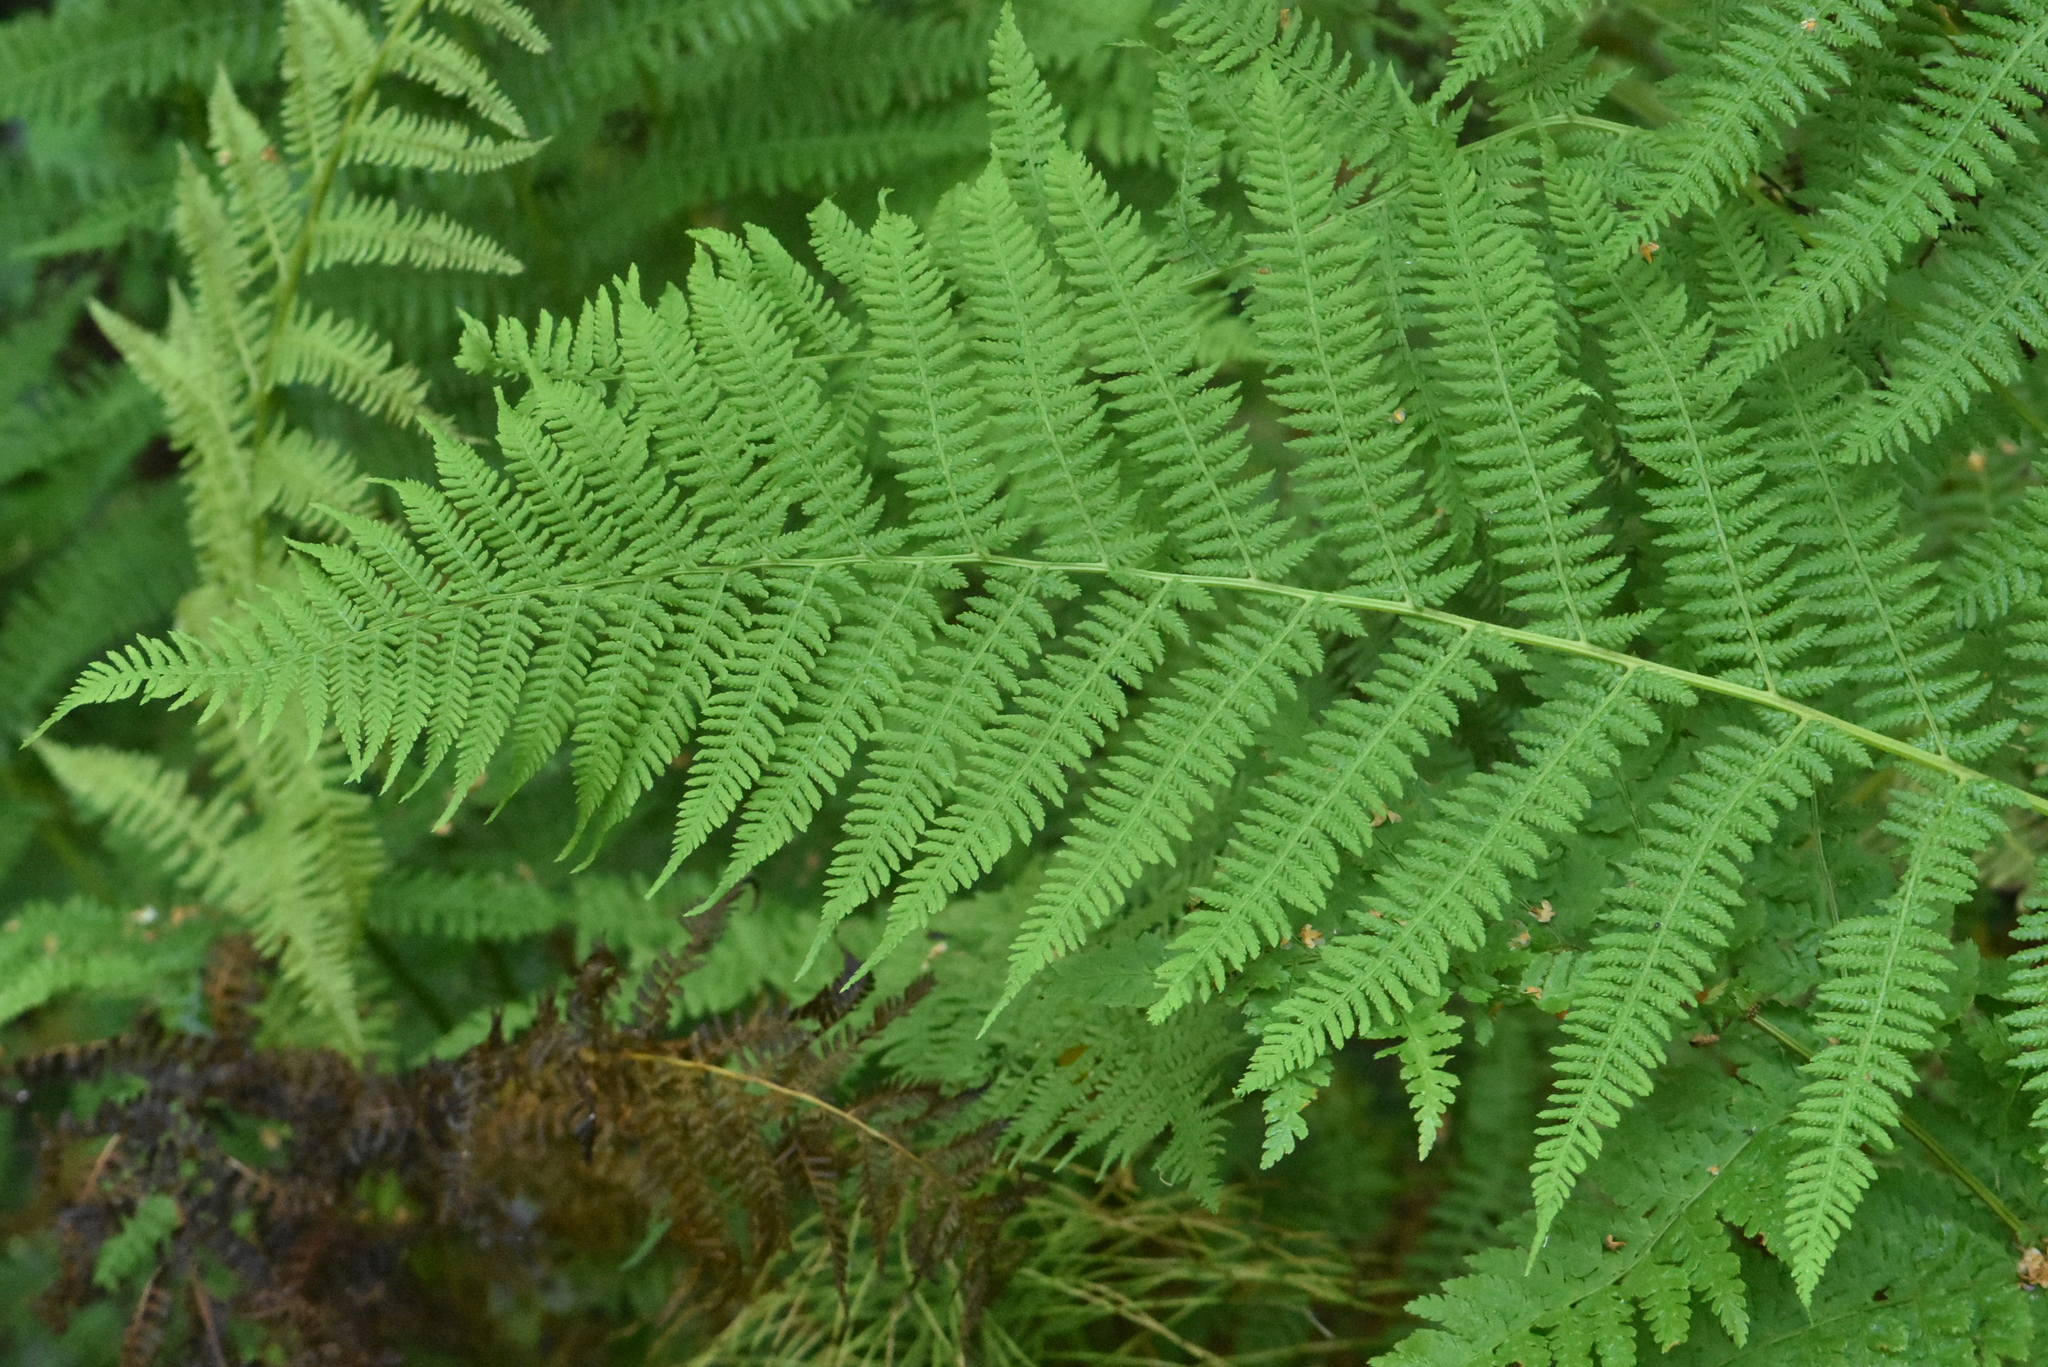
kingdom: Plantae
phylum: Tracheophyta
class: Polypodiopsida
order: Polypodiales
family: Athyriaceae
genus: Athyrium
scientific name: Athyrium filix-femina
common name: Lady fern
